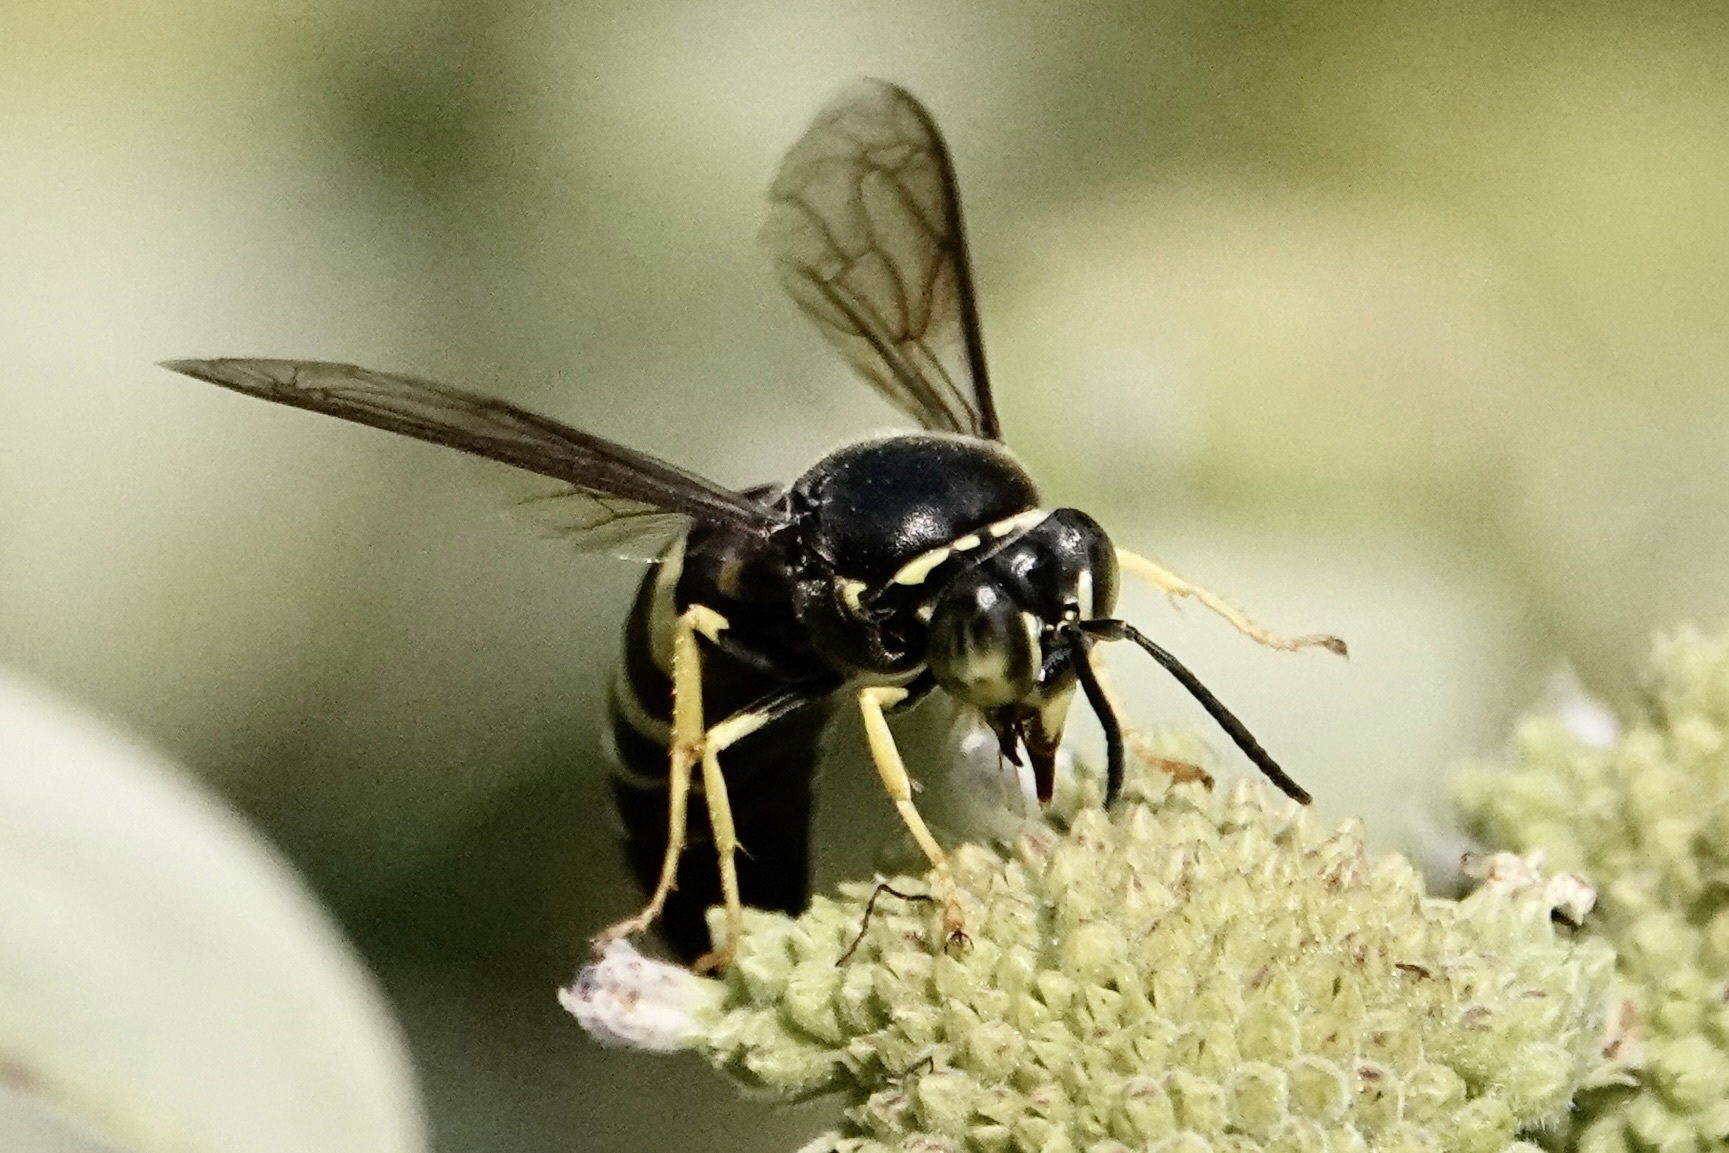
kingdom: Animalia
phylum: Arthropoda
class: Insecta
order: Hymenoptera
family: Crabronidae
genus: Bicyrtes
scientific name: Bicyrtes quadrifasciatus
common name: Four-banded stink bug hunter wasp
